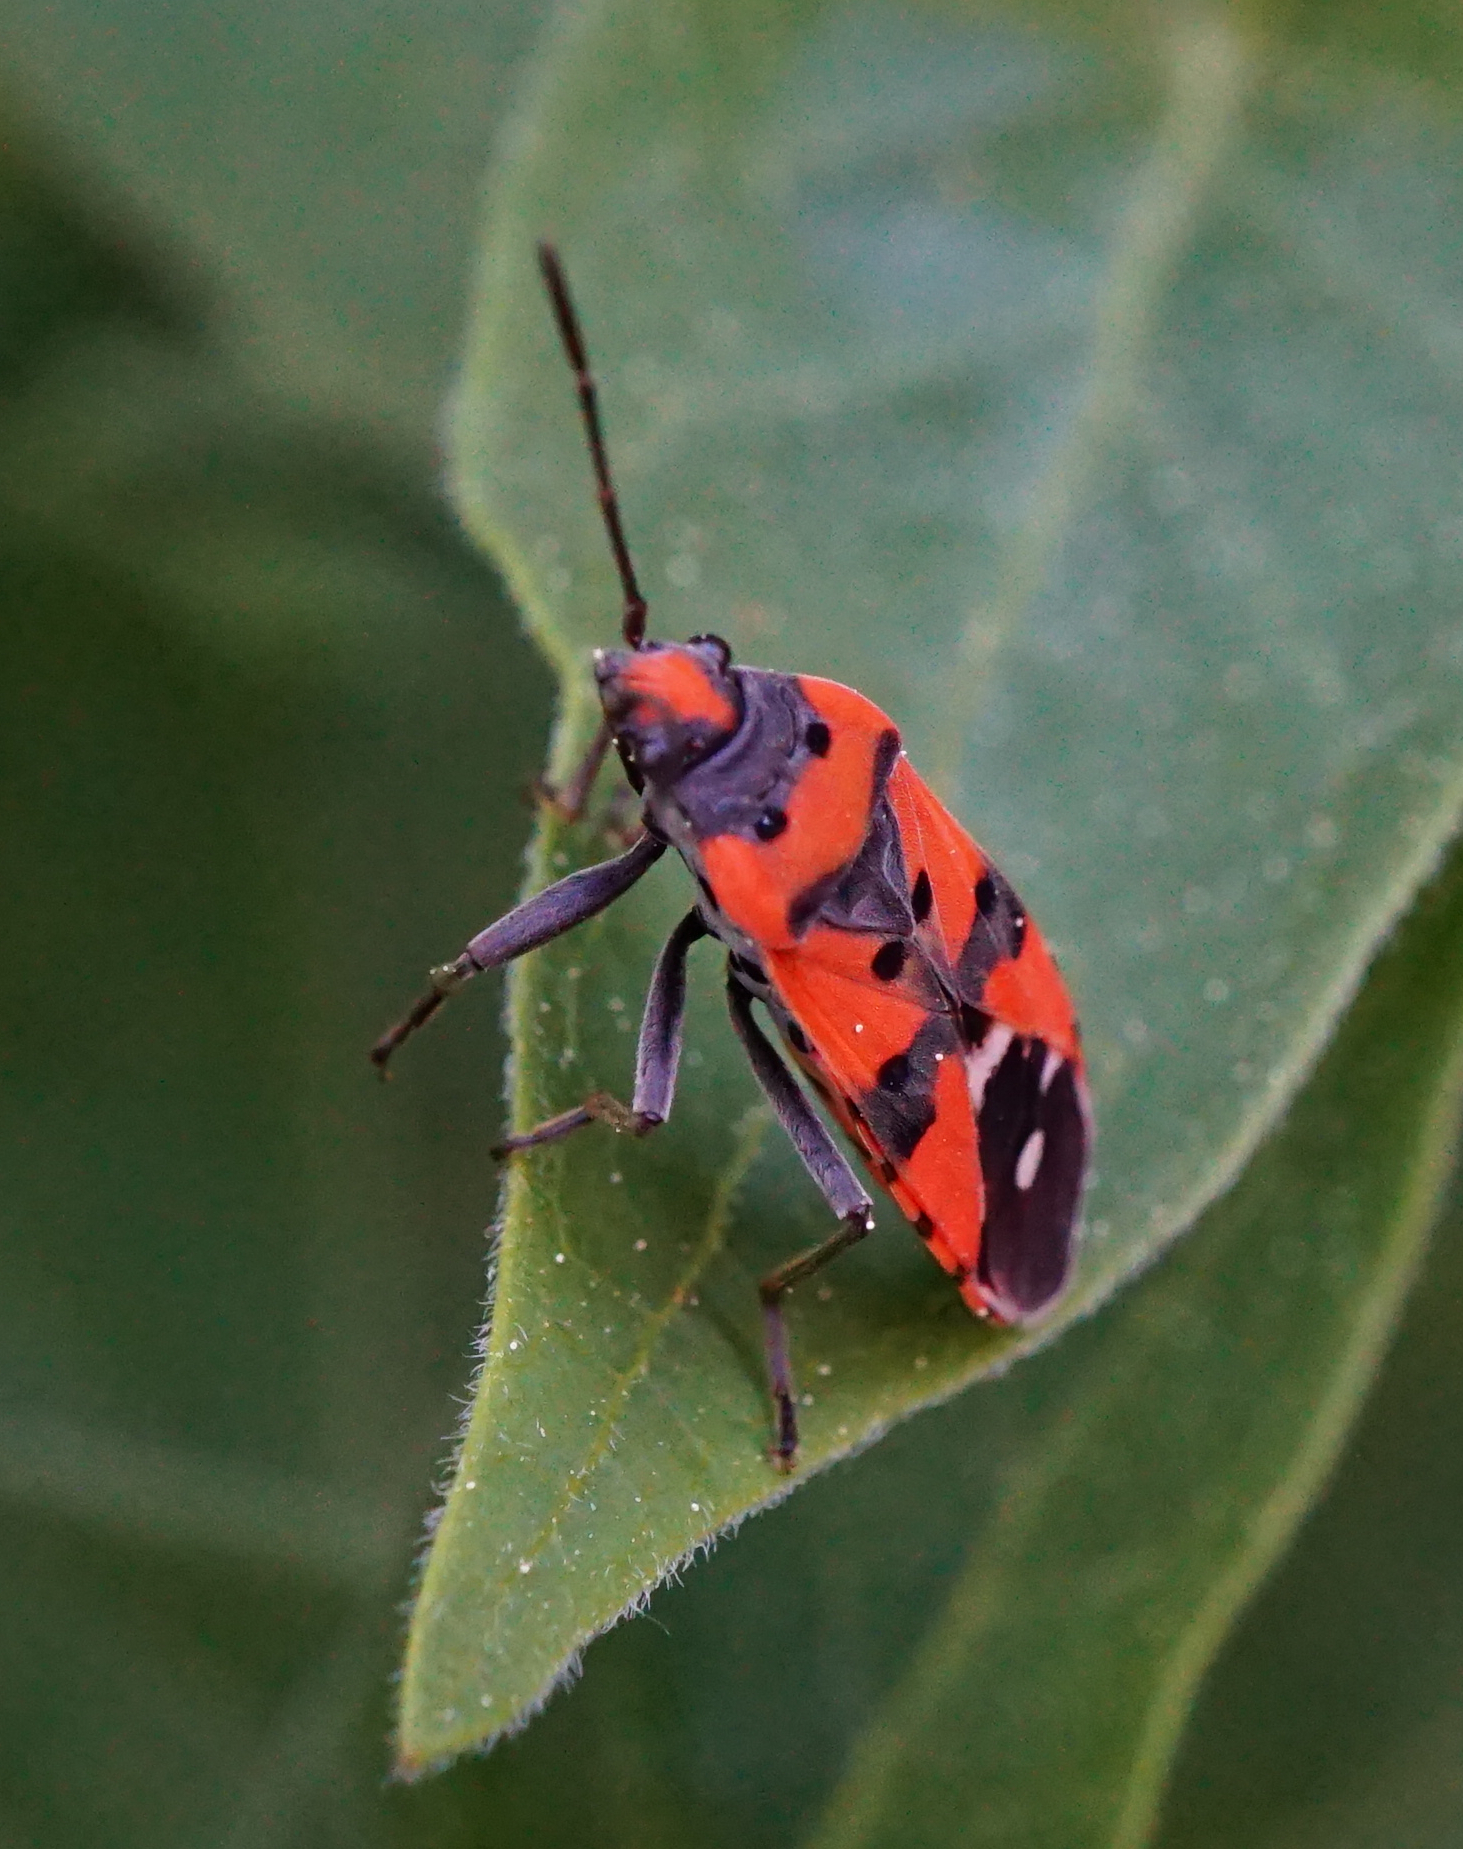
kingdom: Animalia
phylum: Arthropoda
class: Insecta
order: Hemiptera
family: Lygaeidae
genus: Lygaeus
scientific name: Lygaeus equestris
